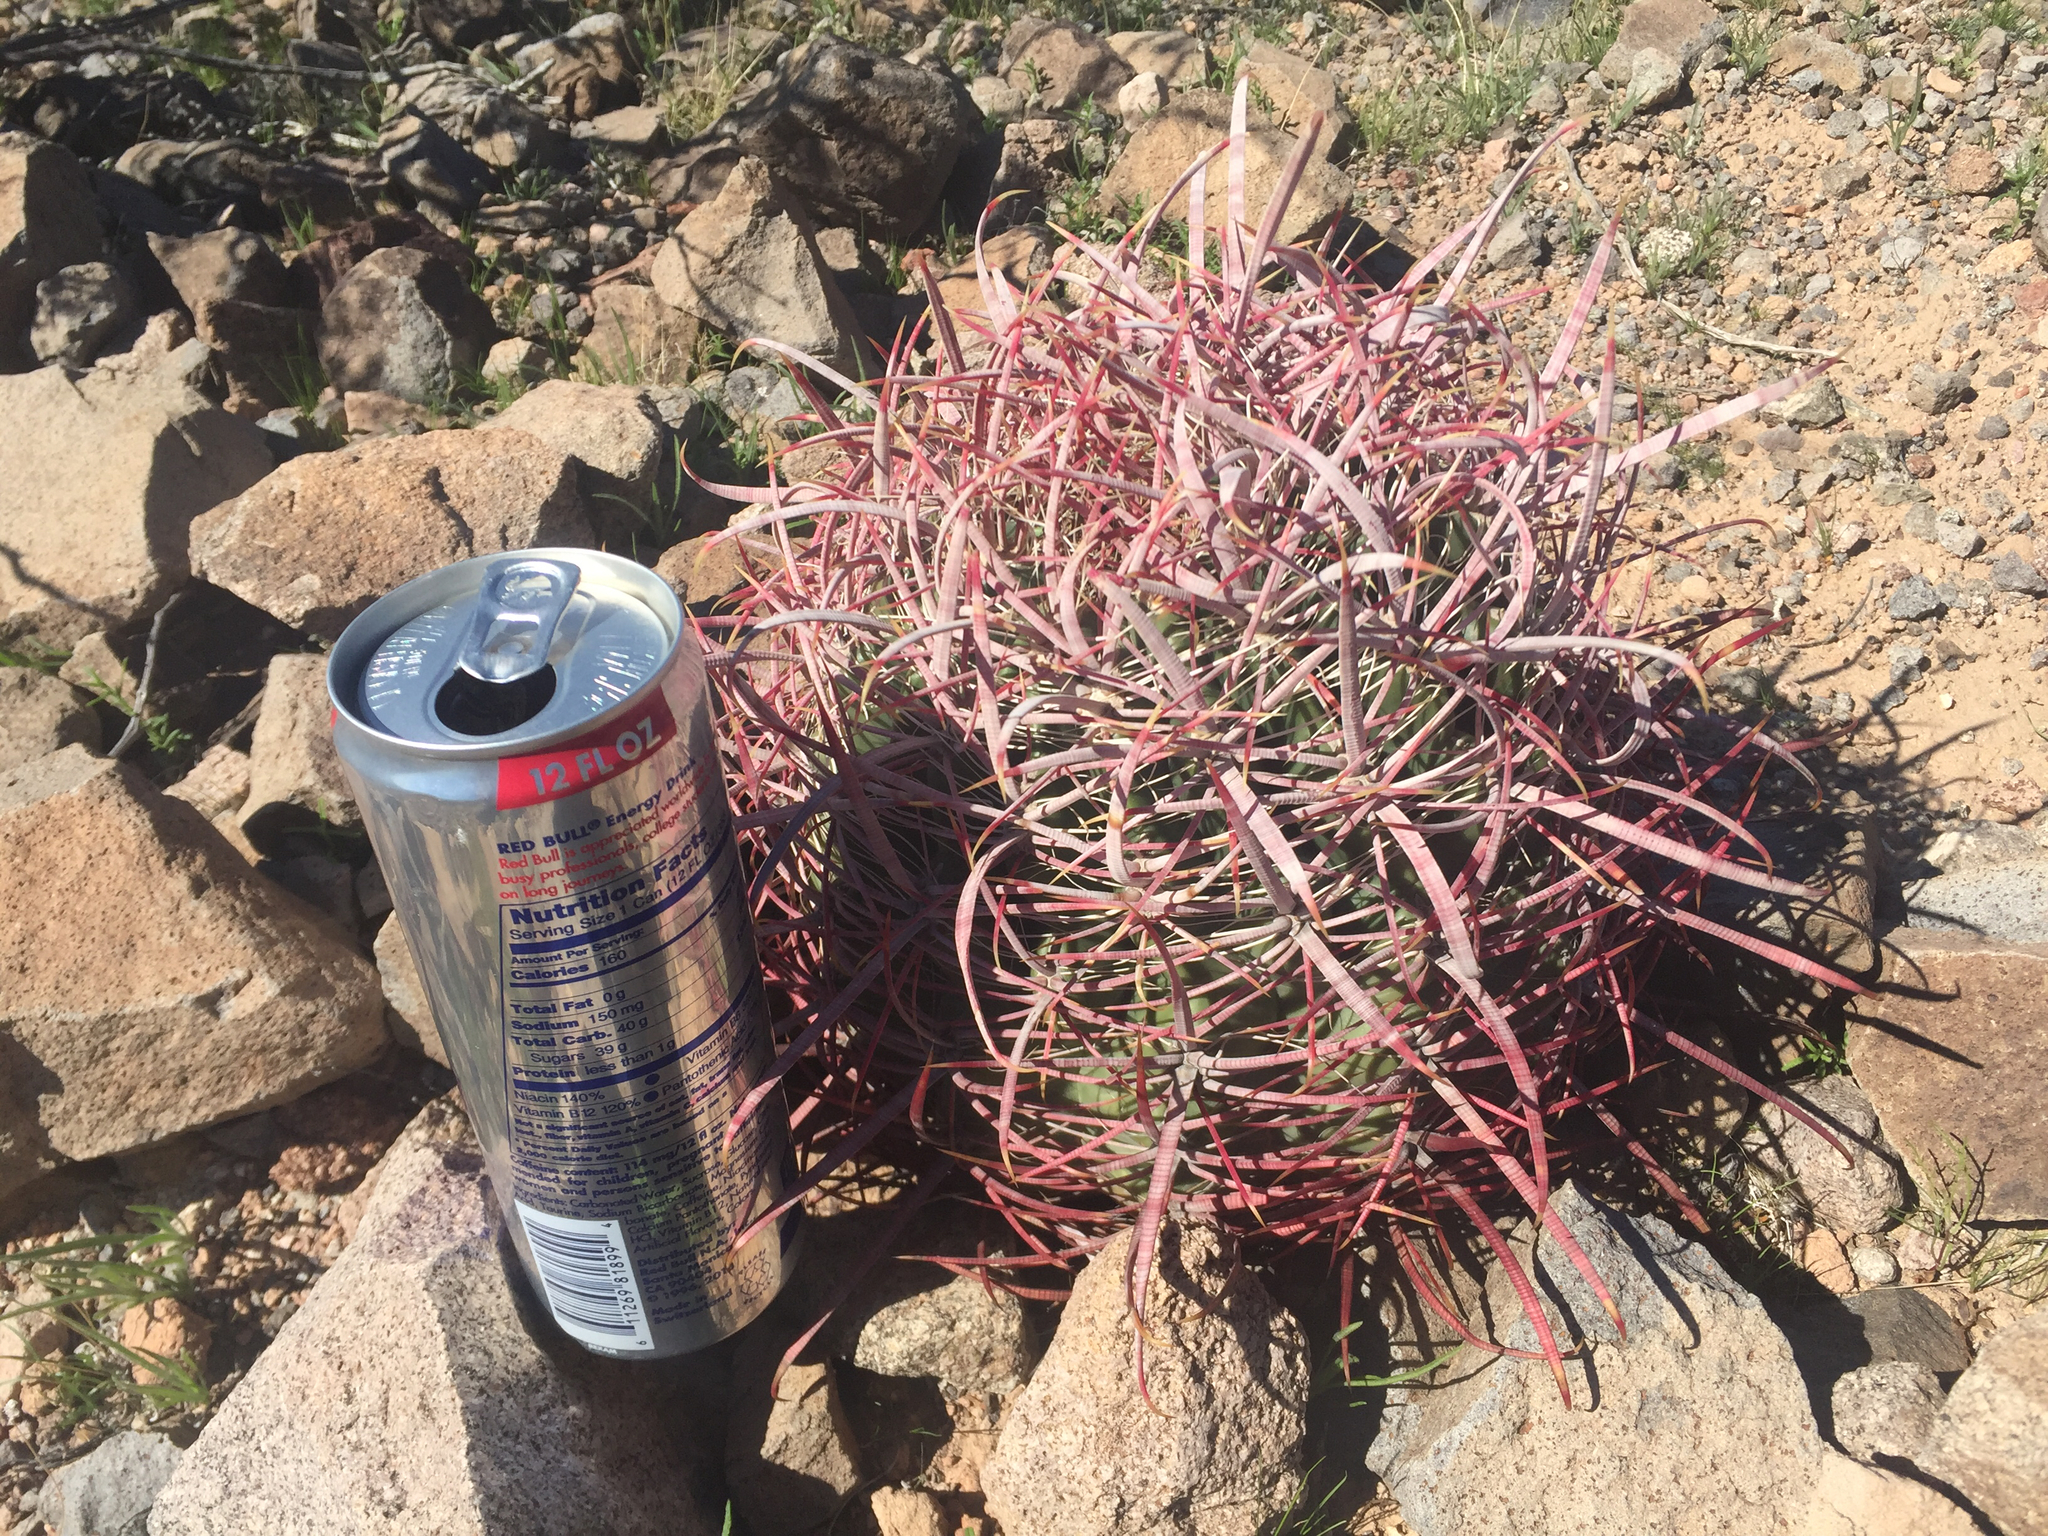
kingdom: Plantae
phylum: Tracheophyta
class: Magnoliopsida
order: Caryophyllales
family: Cactaceae
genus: Ferocactus
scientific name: Ferocactus cylindraceus
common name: California barrel cactus
